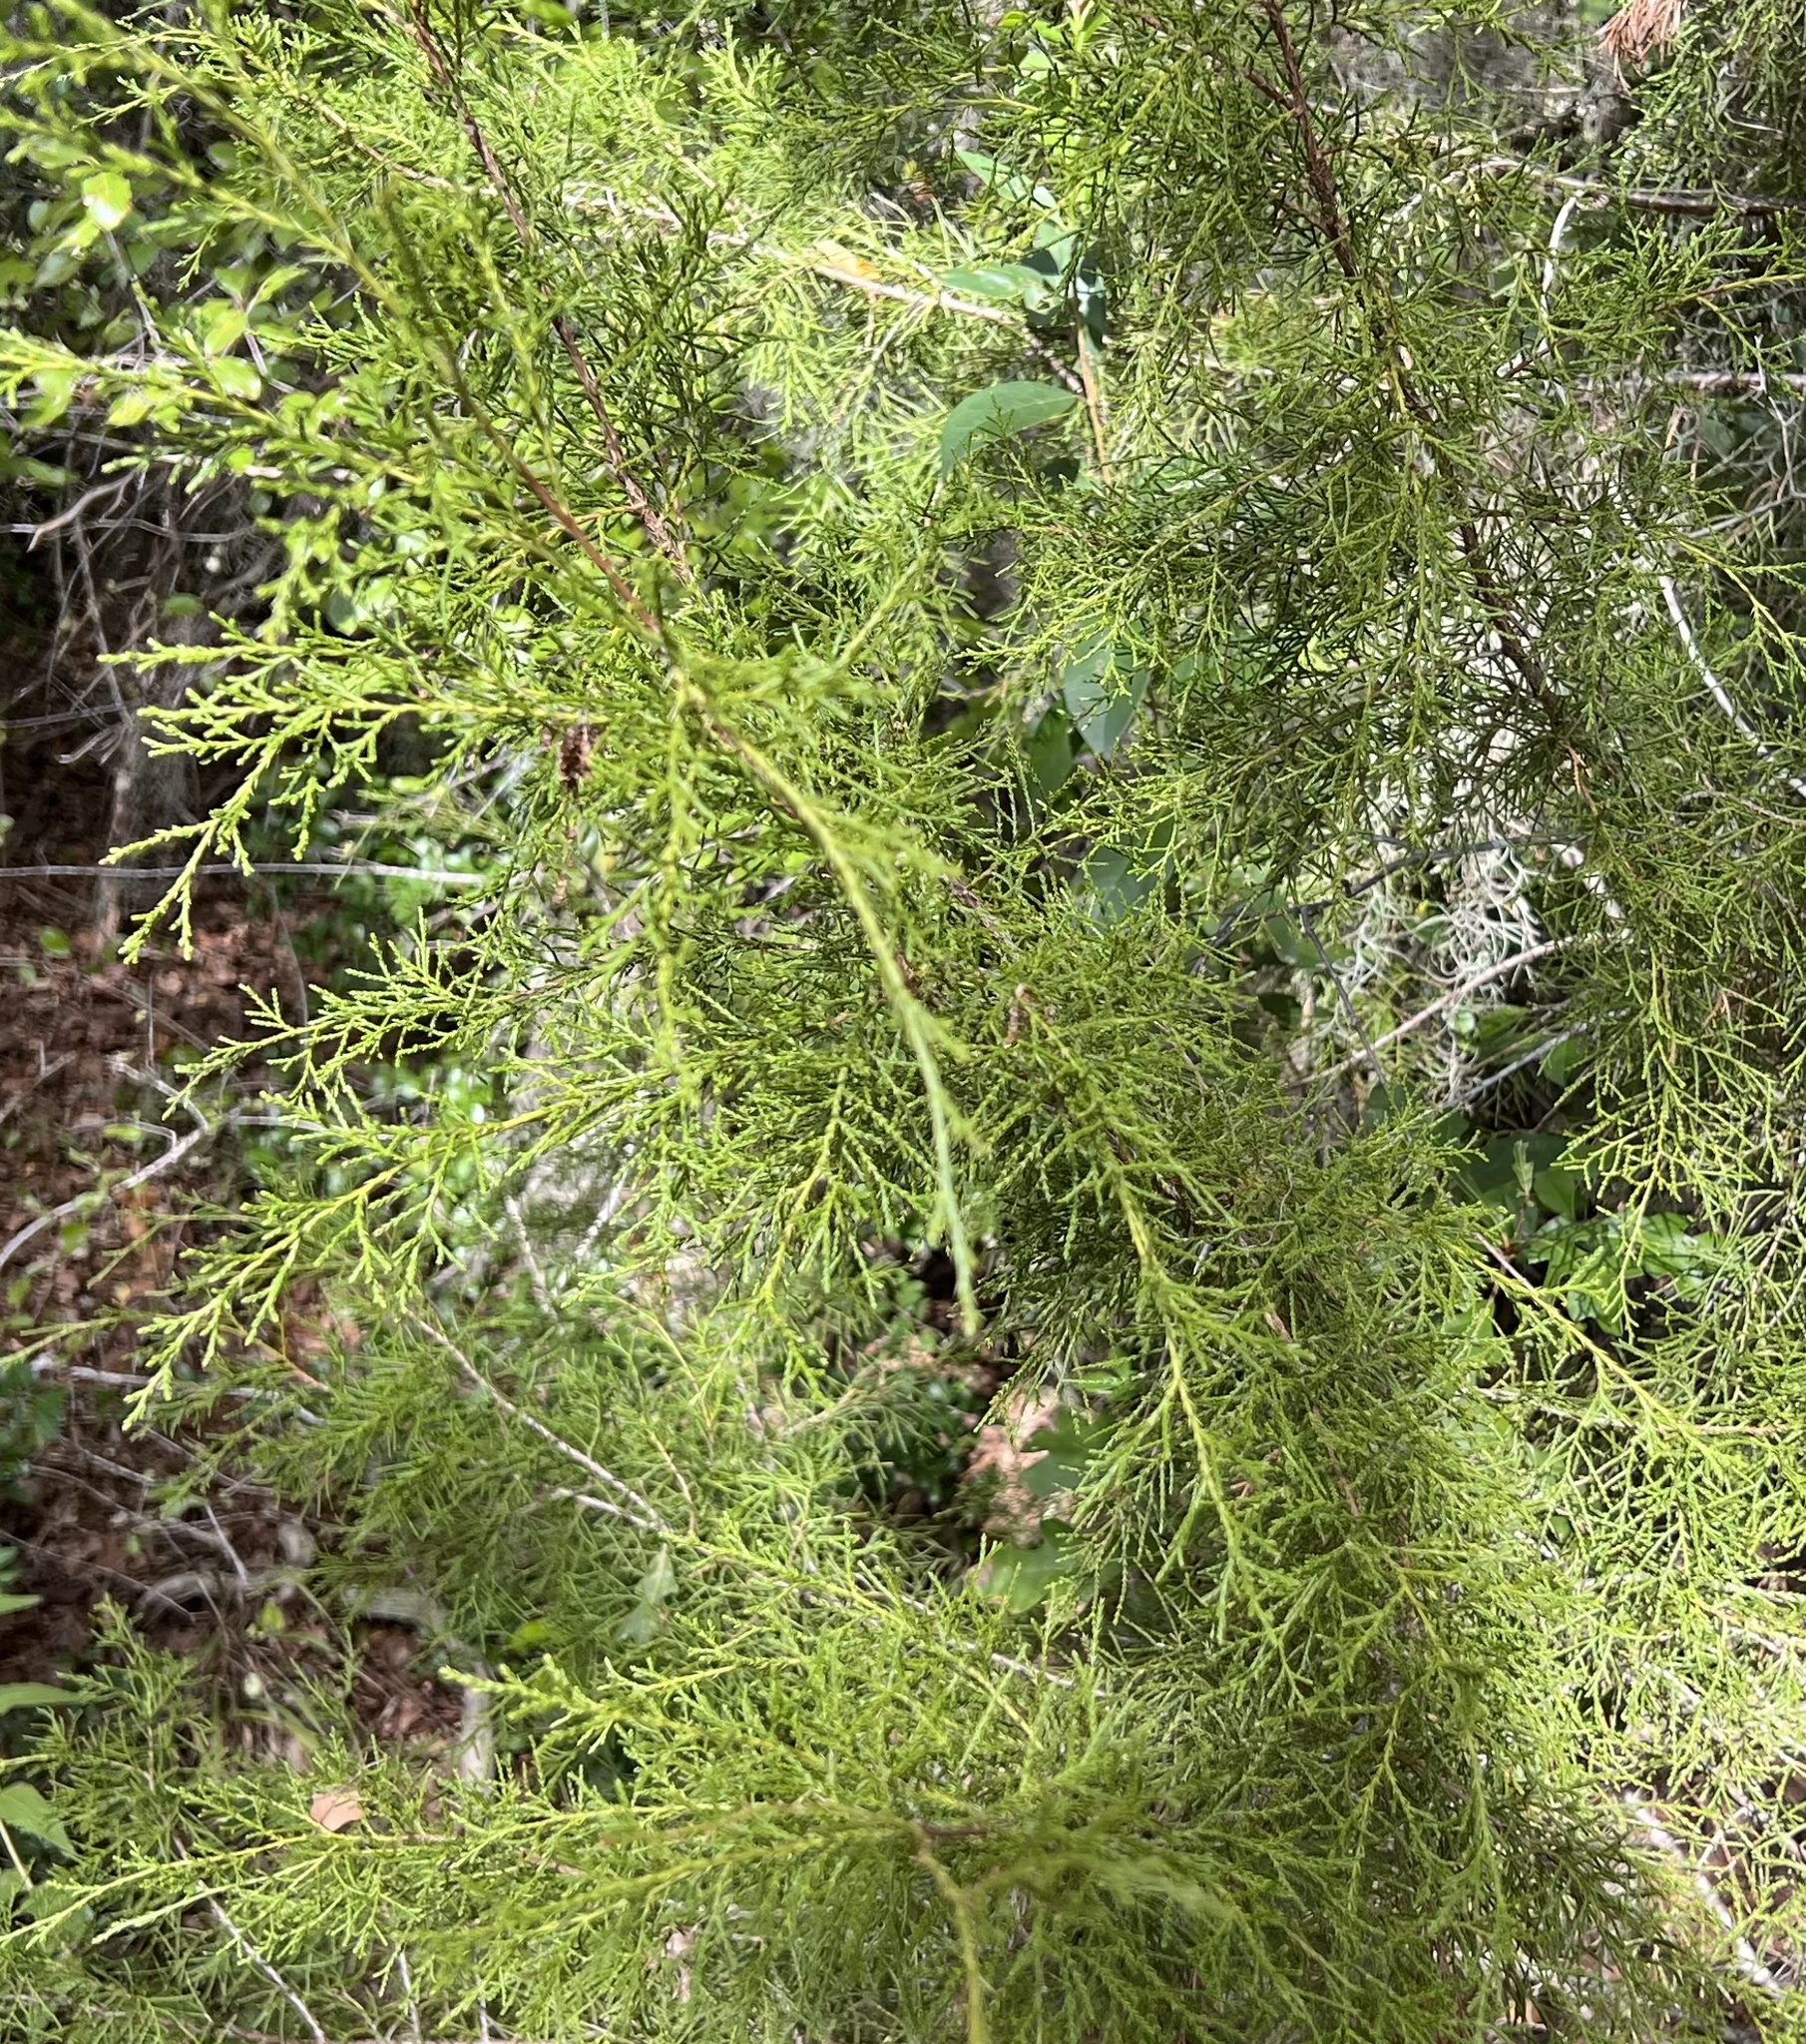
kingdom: Plantae
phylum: Tracheophyta
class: Pinopsida
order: Pinales
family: Cupressaceae
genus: Juniperus
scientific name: Juniperus virginiana
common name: Red juniper
